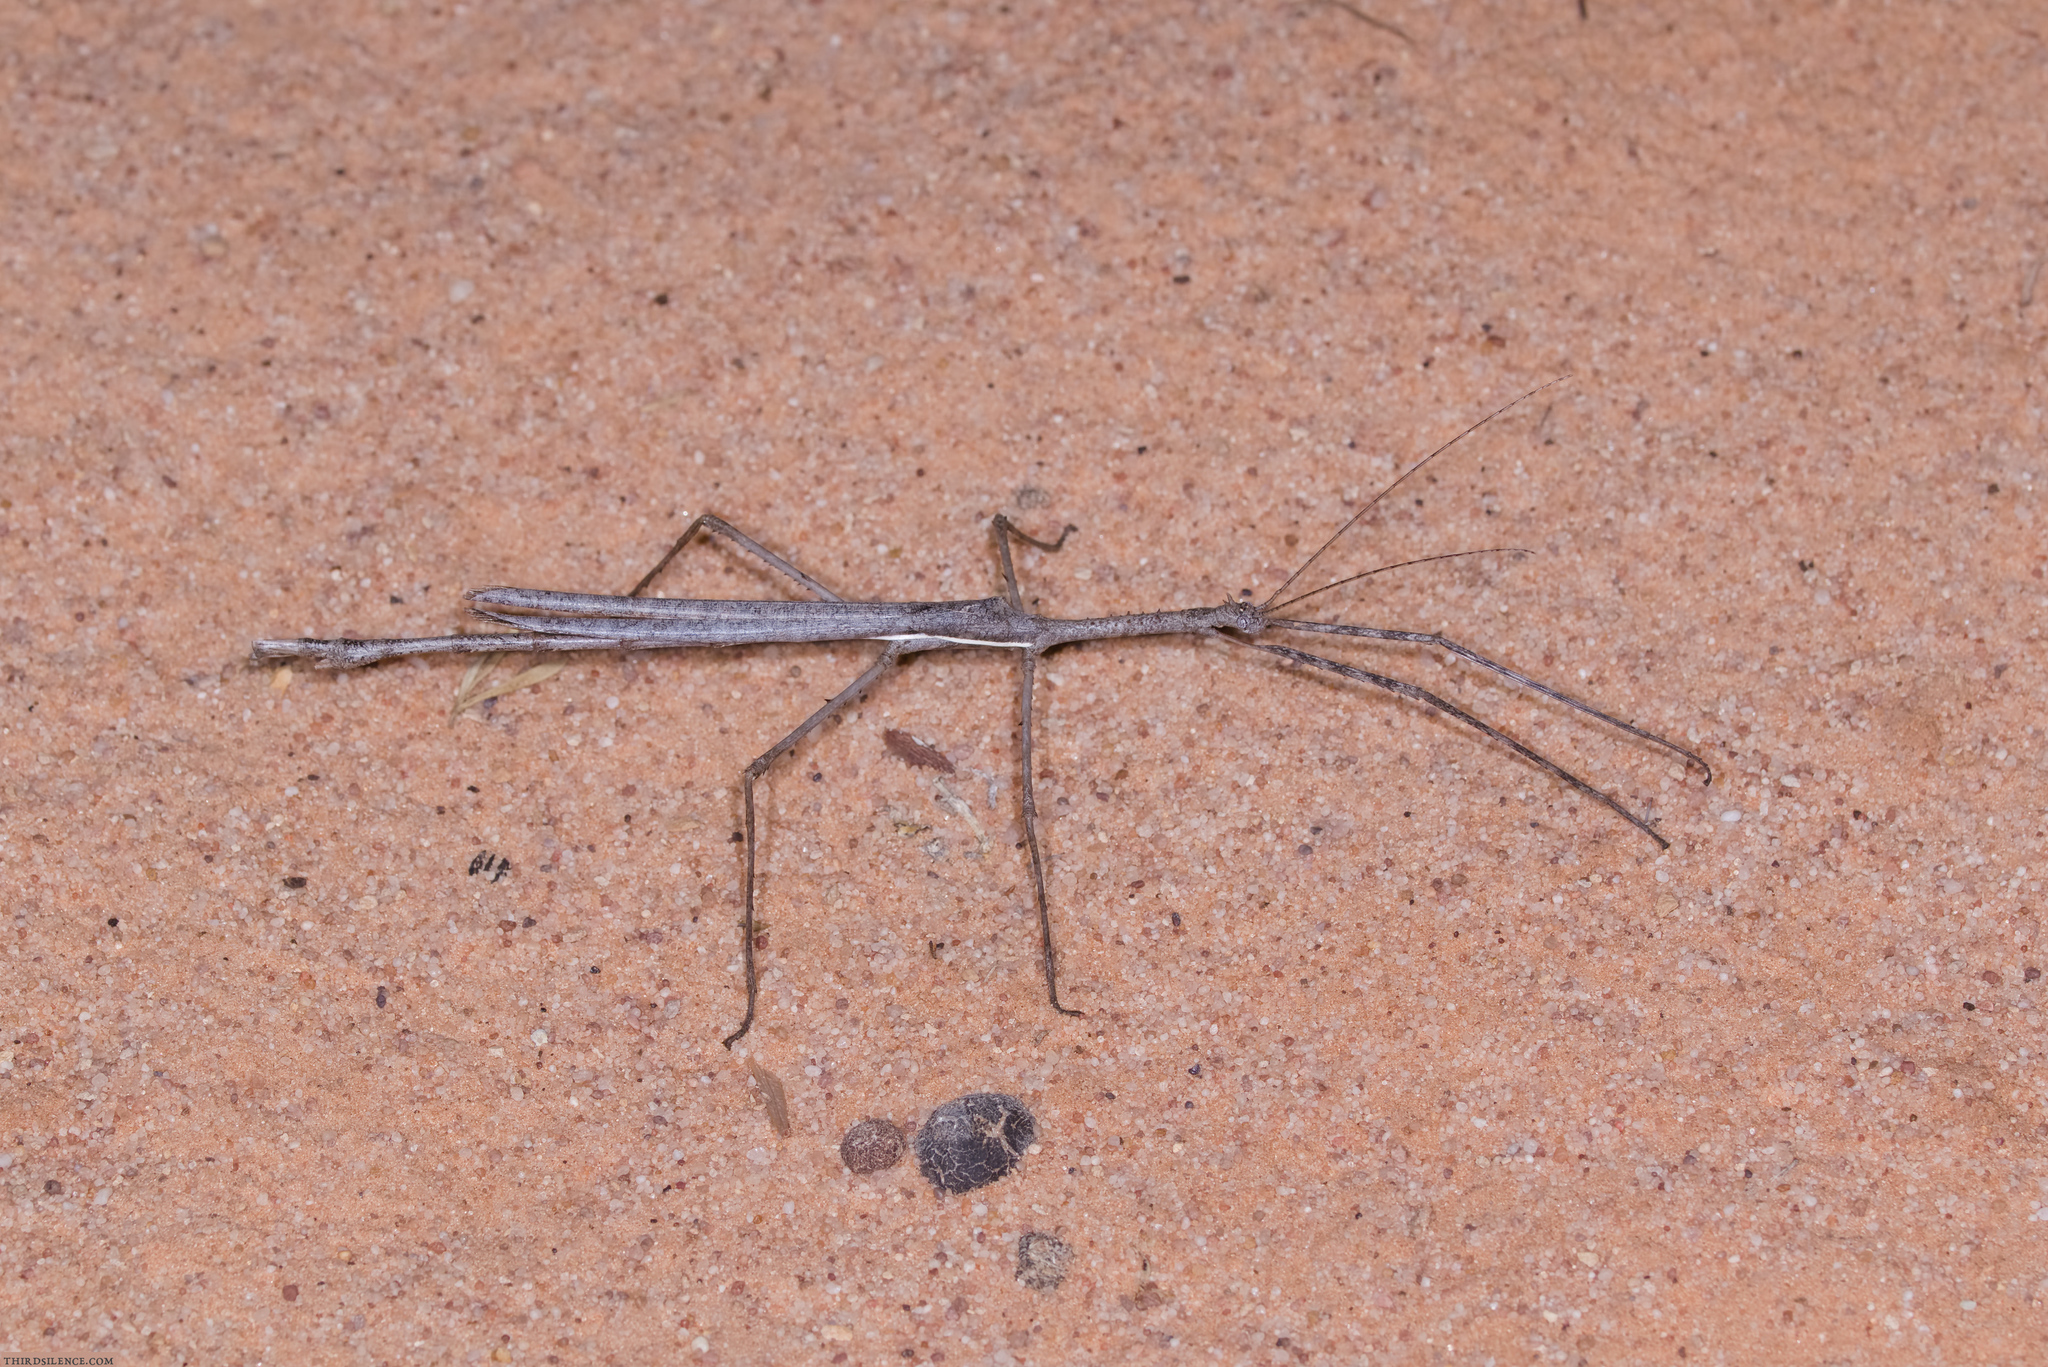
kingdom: Animalia
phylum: Arthropoda
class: Insecta
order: Phasmida
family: Phasmatidae
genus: Paronchestus
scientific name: Paronchestus cornutus
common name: Horned stick-insect
